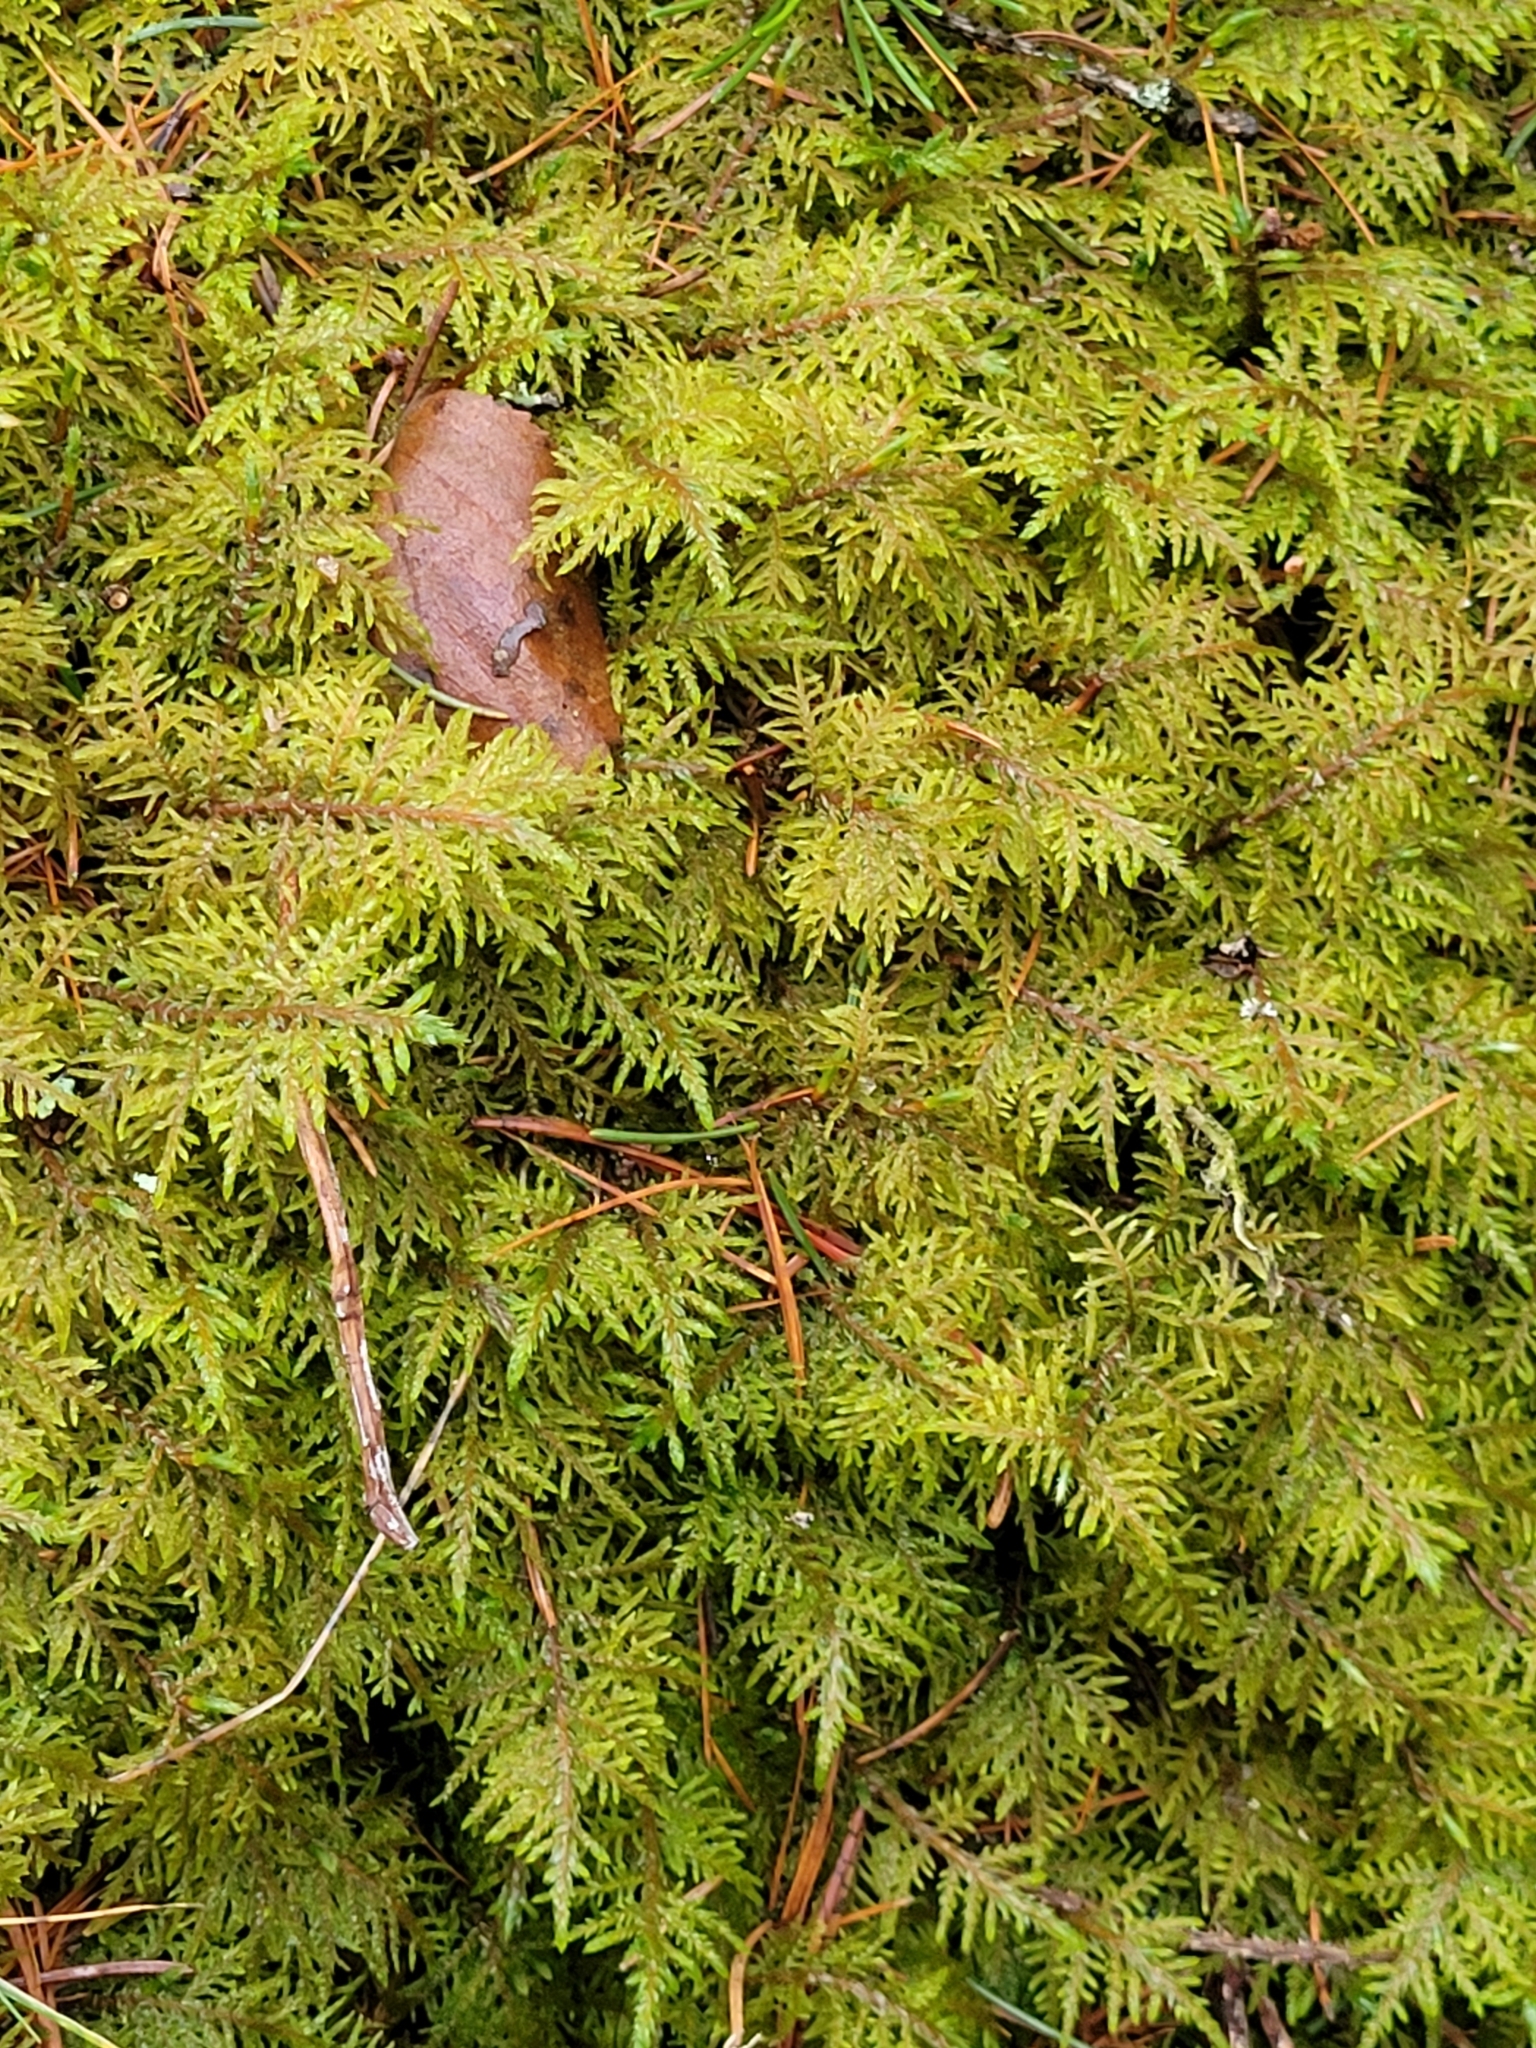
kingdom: Plantae
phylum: Bryophyta
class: Bryopsida
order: Hypnales
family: Hylocomiaceae
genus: Hylocomium
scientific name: Hylocomium splendens
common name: Stairstep moss
